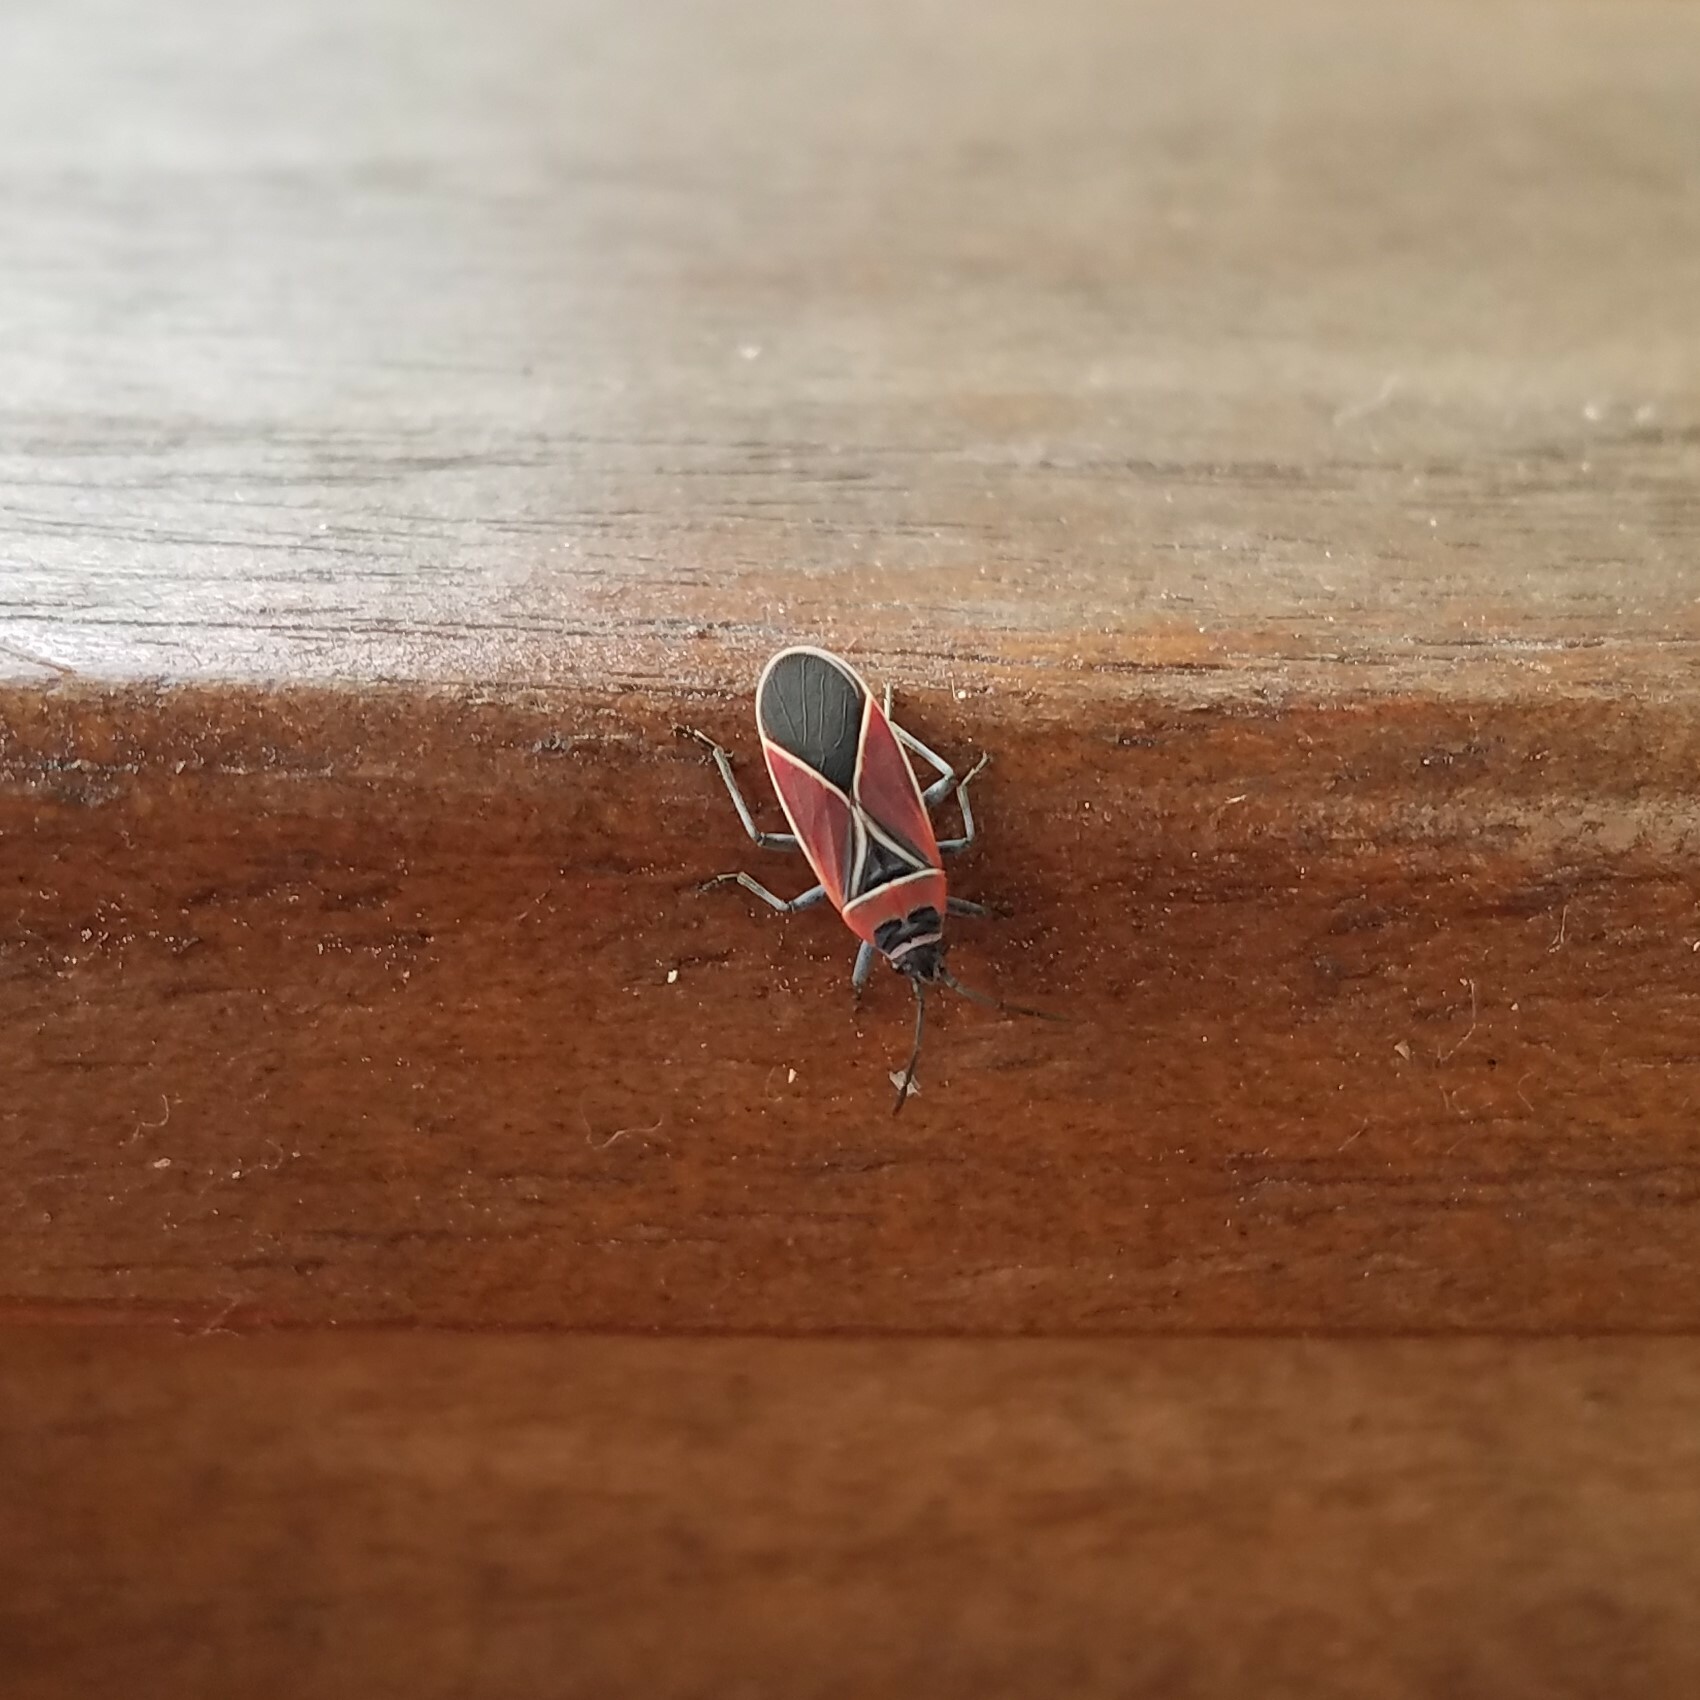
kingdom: Animalia
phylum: Arthropoda
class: Insecta
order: Hemiptera
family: Lygaeidae
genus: Neacoryphus
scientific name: Neacoryphus bicrucis
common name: Lygaeid bug
